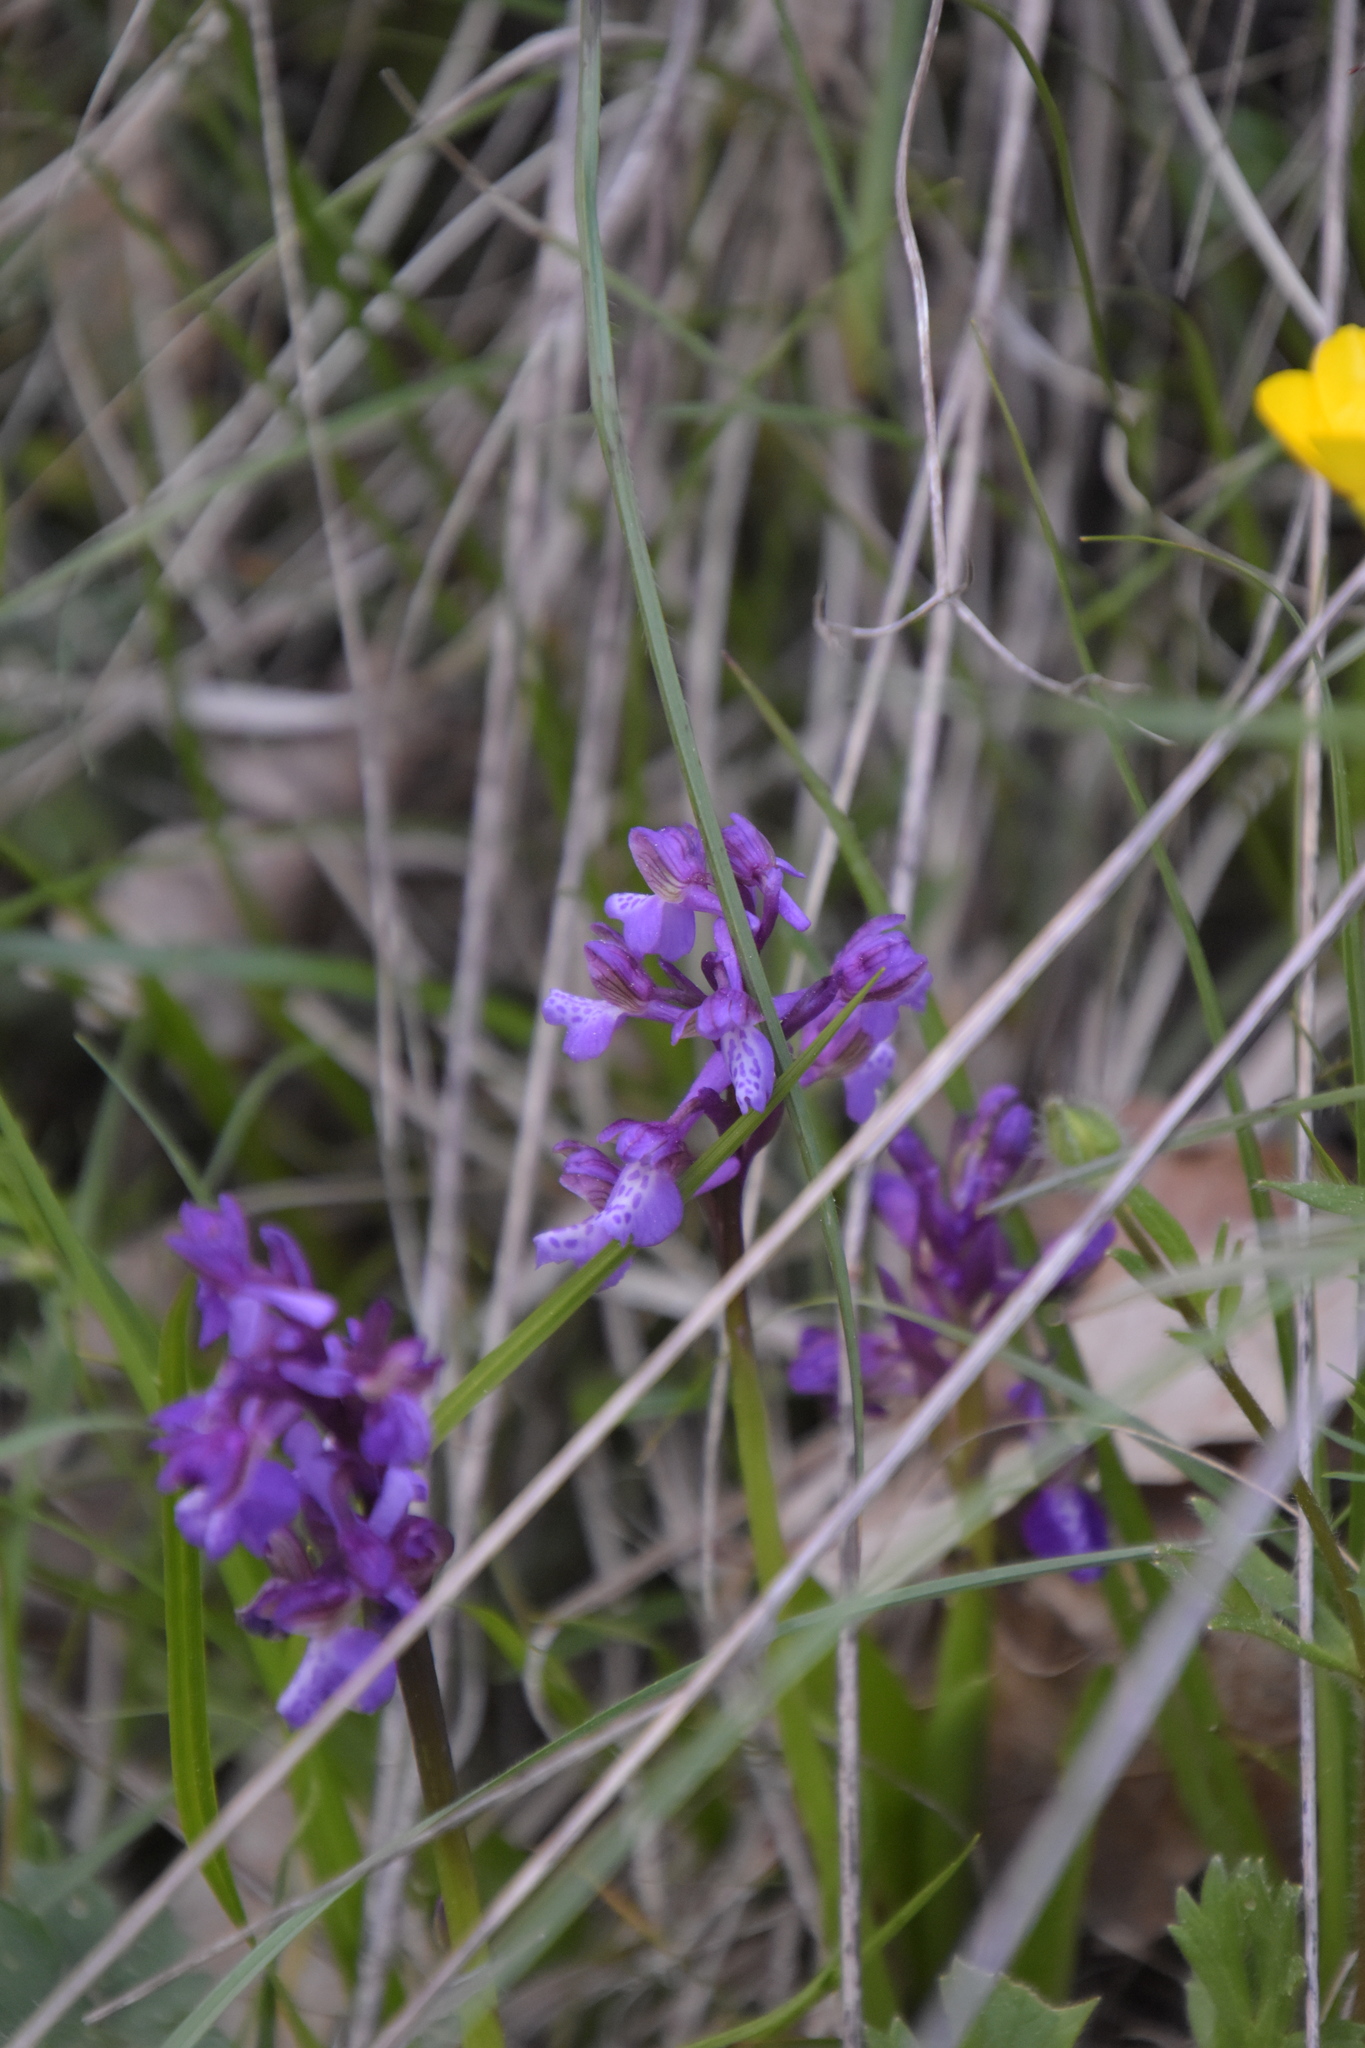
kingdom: Plantae
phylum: Tracheophyta
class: Liliopsida
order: Asparagales
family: Orchidaceae
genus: Anacamptis
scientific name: Anacamptis morio
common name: Green-winged orchid
